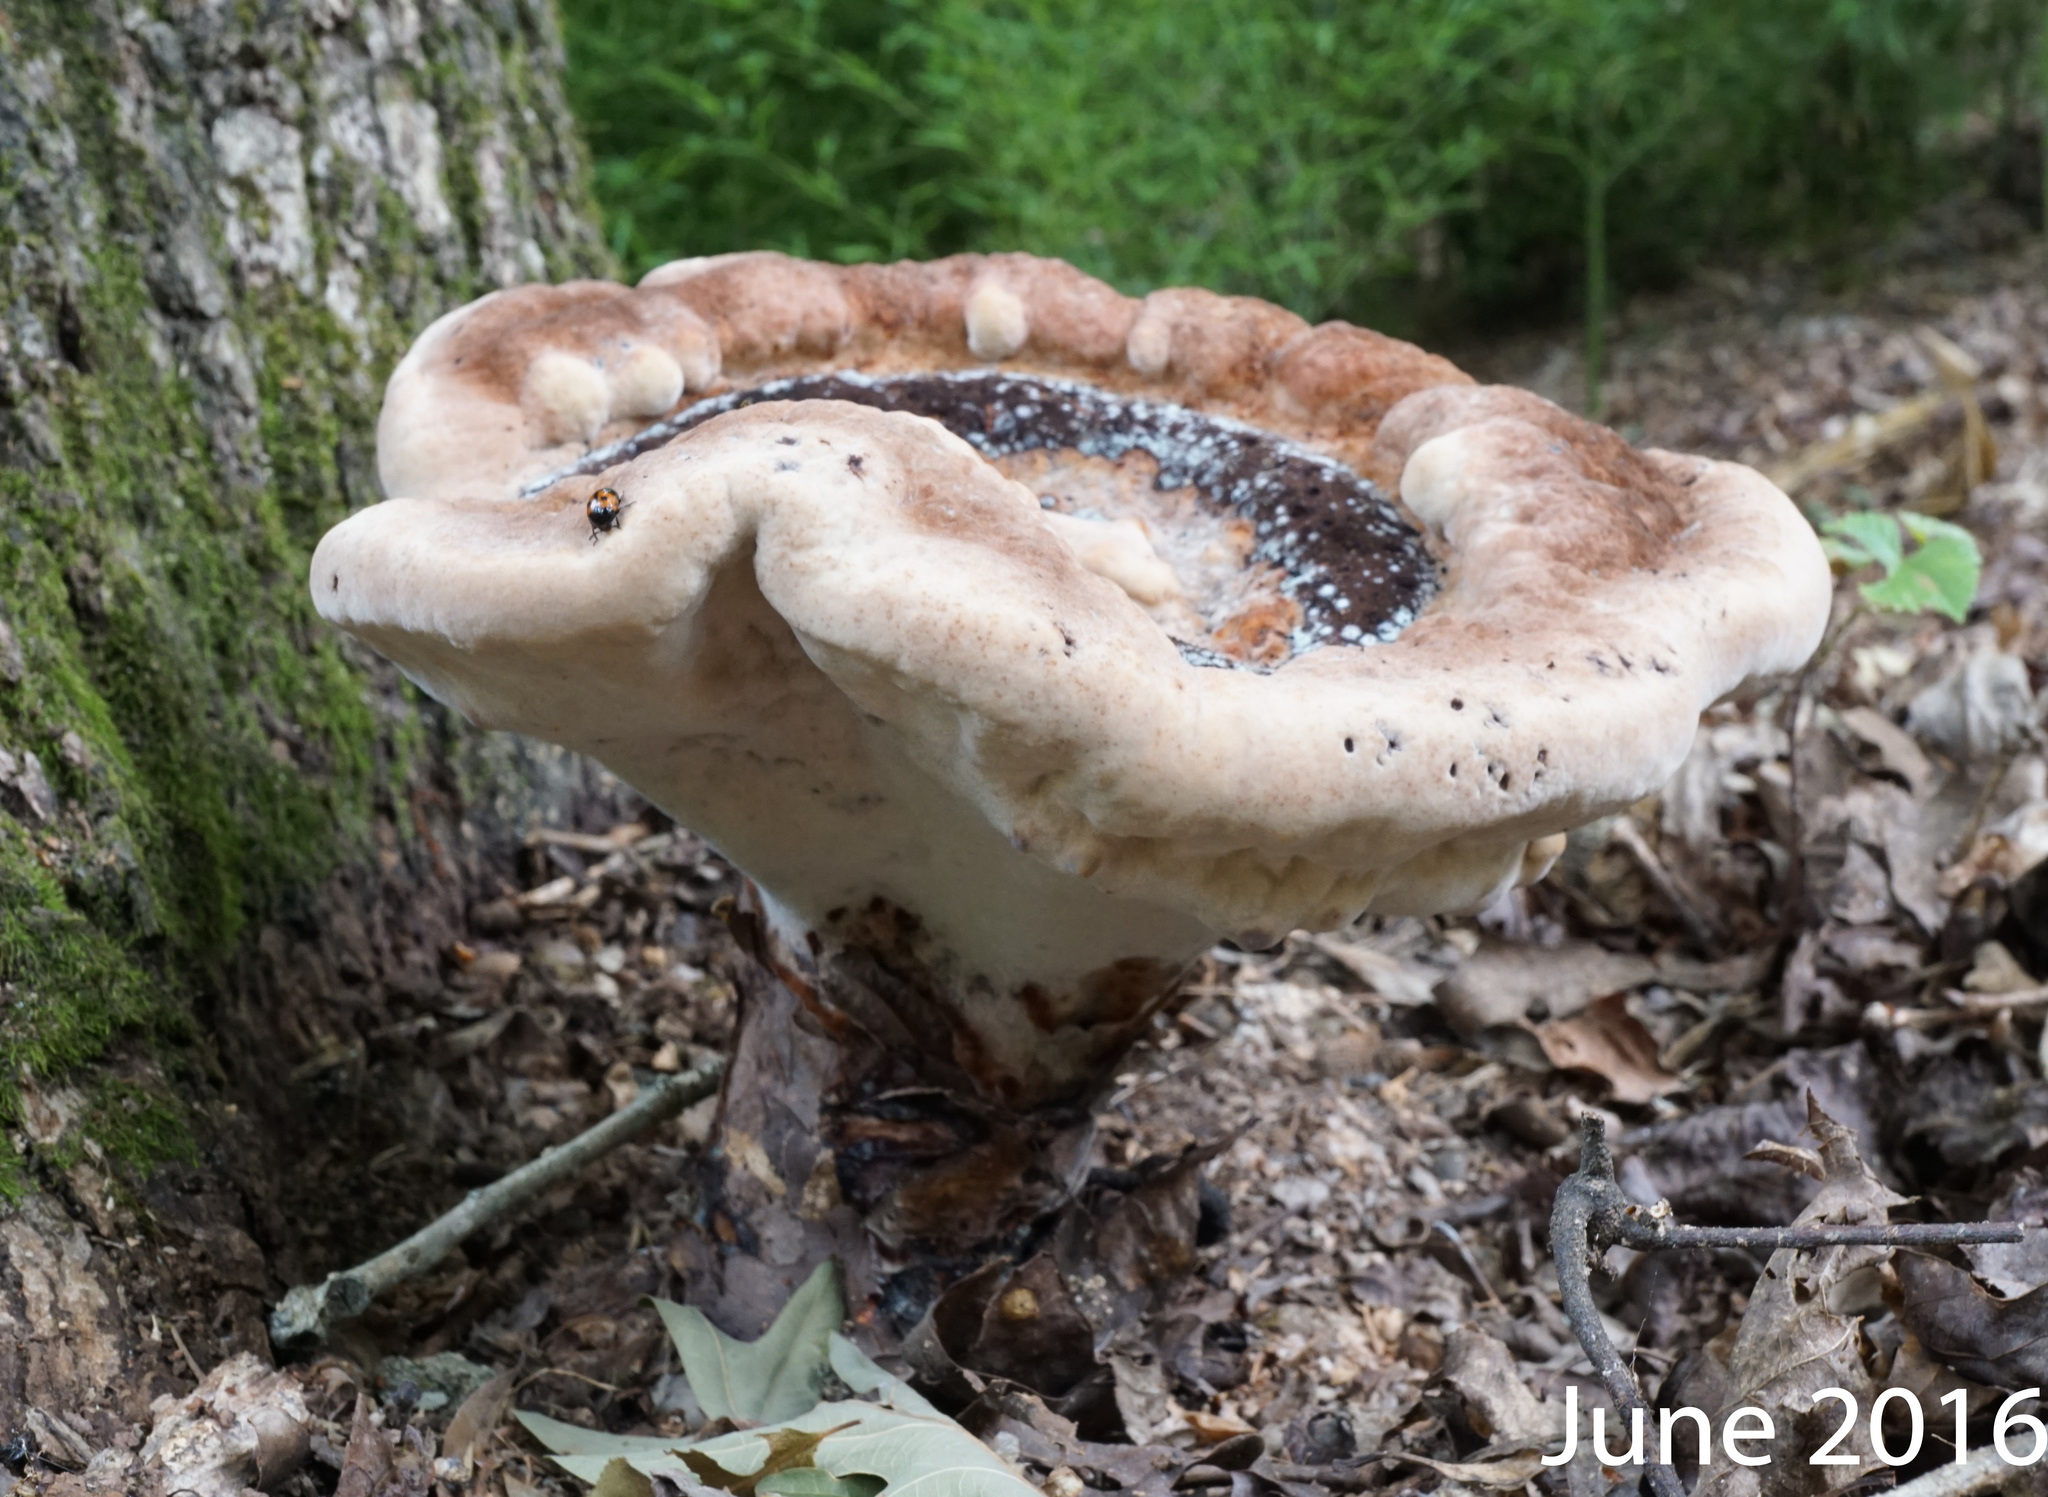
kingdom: Fungi
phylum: Basidiomycota
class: Agaricomycetes
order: Polyporales
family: Laetiporaceae
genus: Berkcurtia
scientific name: Berkcurtia persicina
